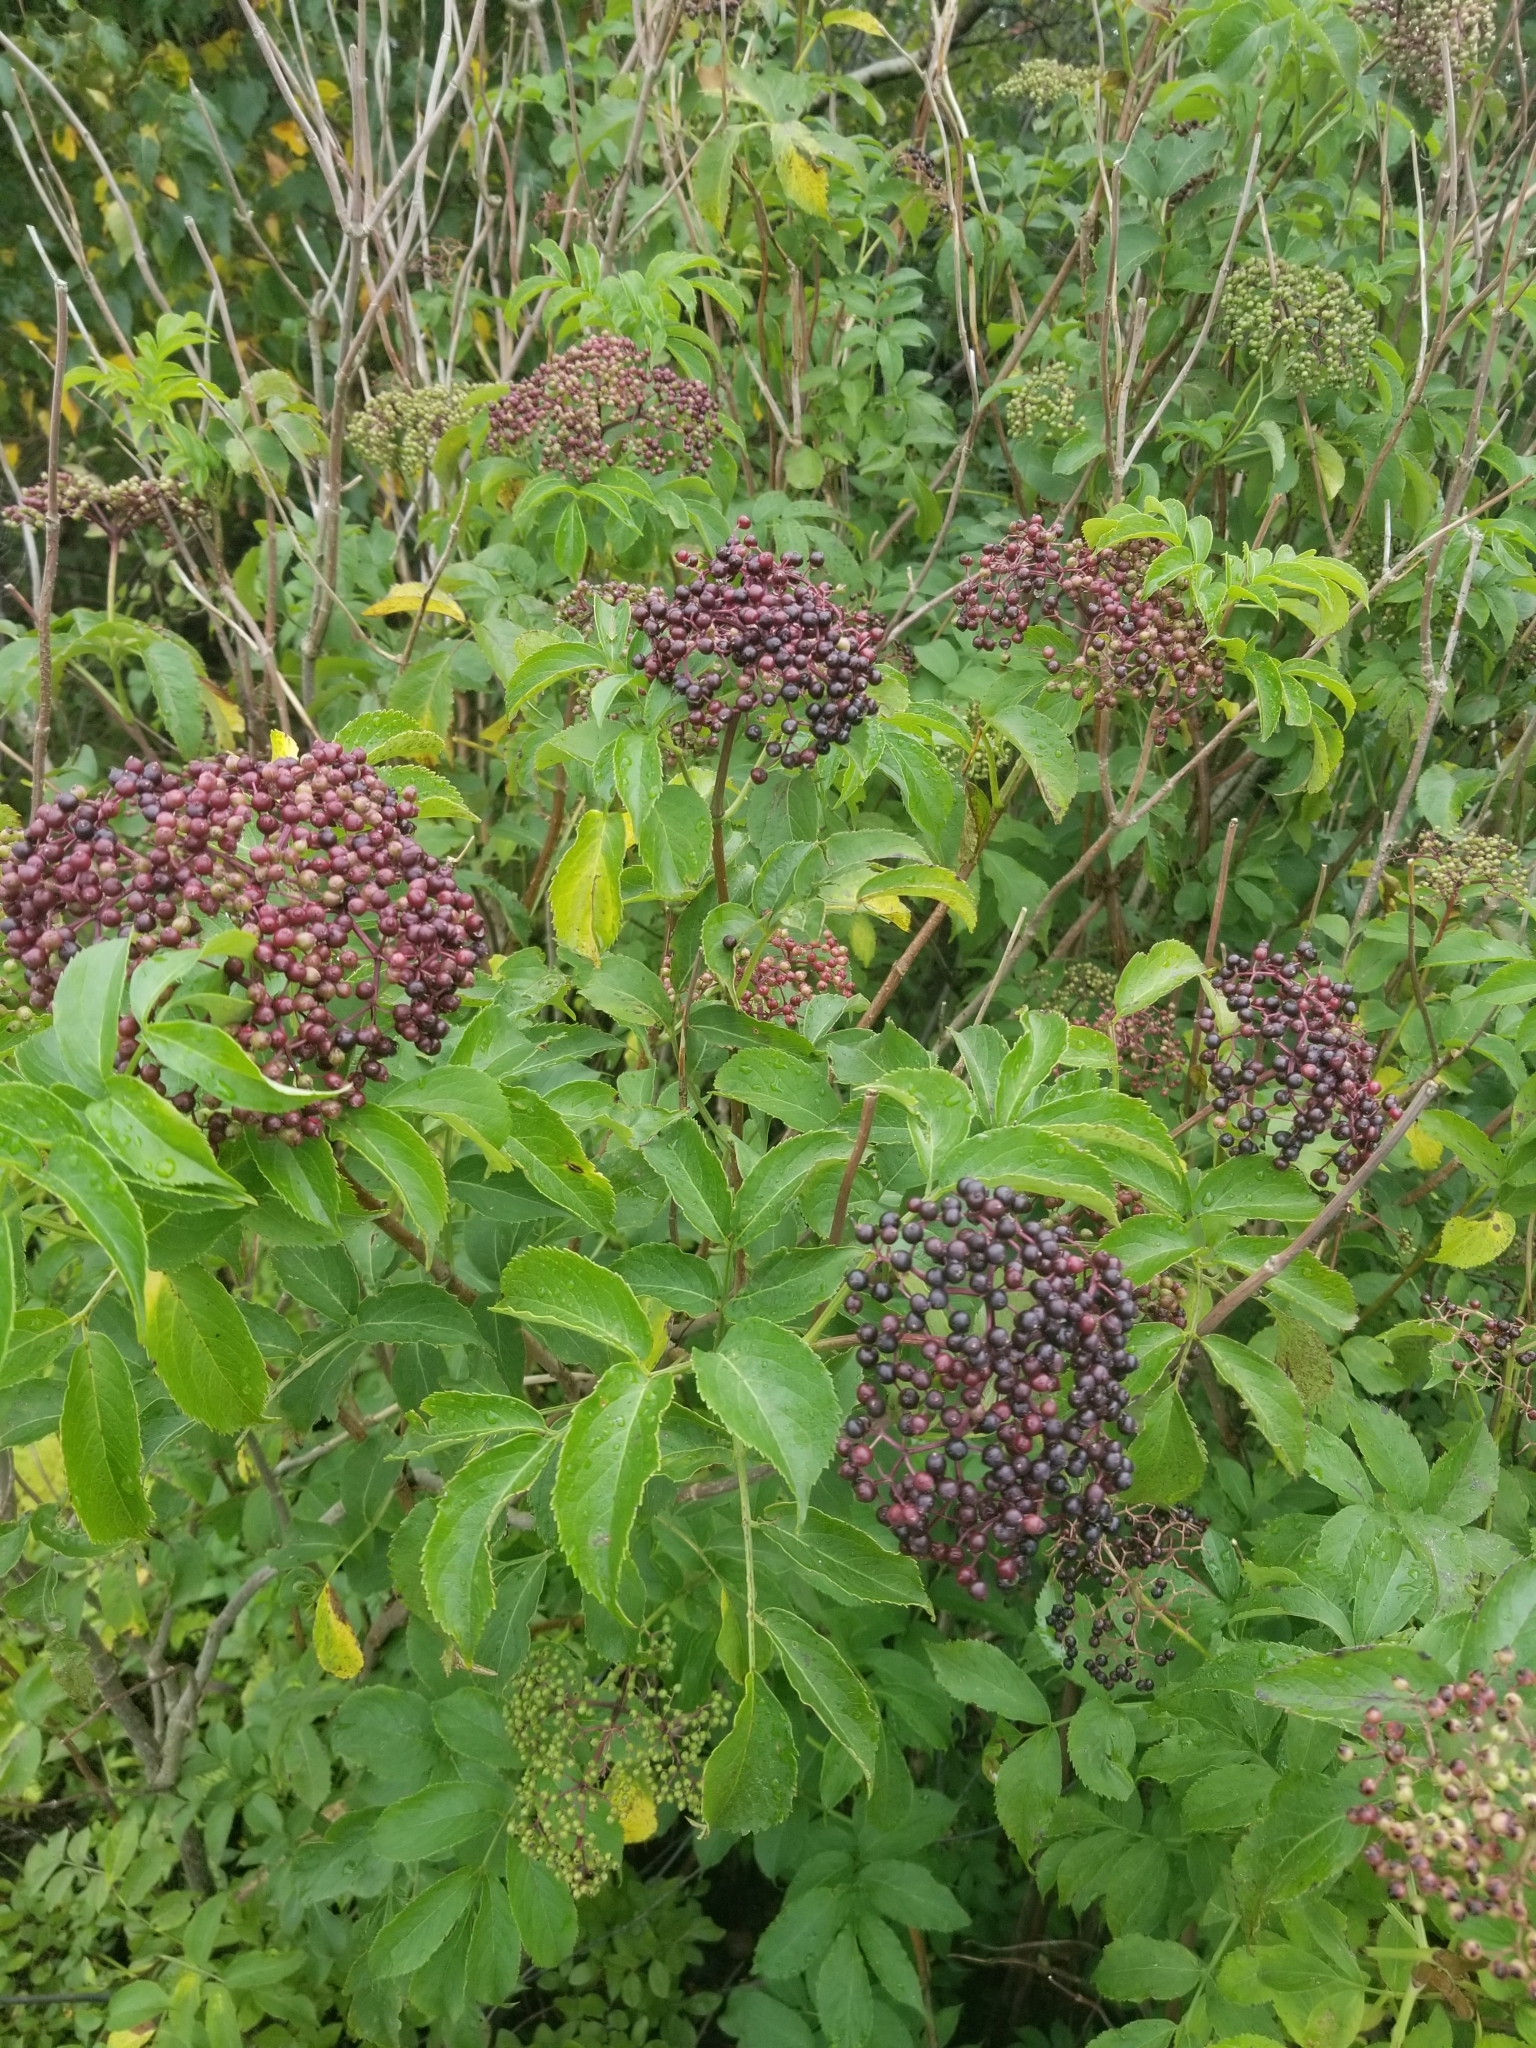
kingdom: Plantae
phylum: Tracheophyta
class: Magnoliopsida
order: Dipsacales
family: Viburnaceae
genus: Sambucus
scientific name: Sambucus canadensis
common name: American elder
